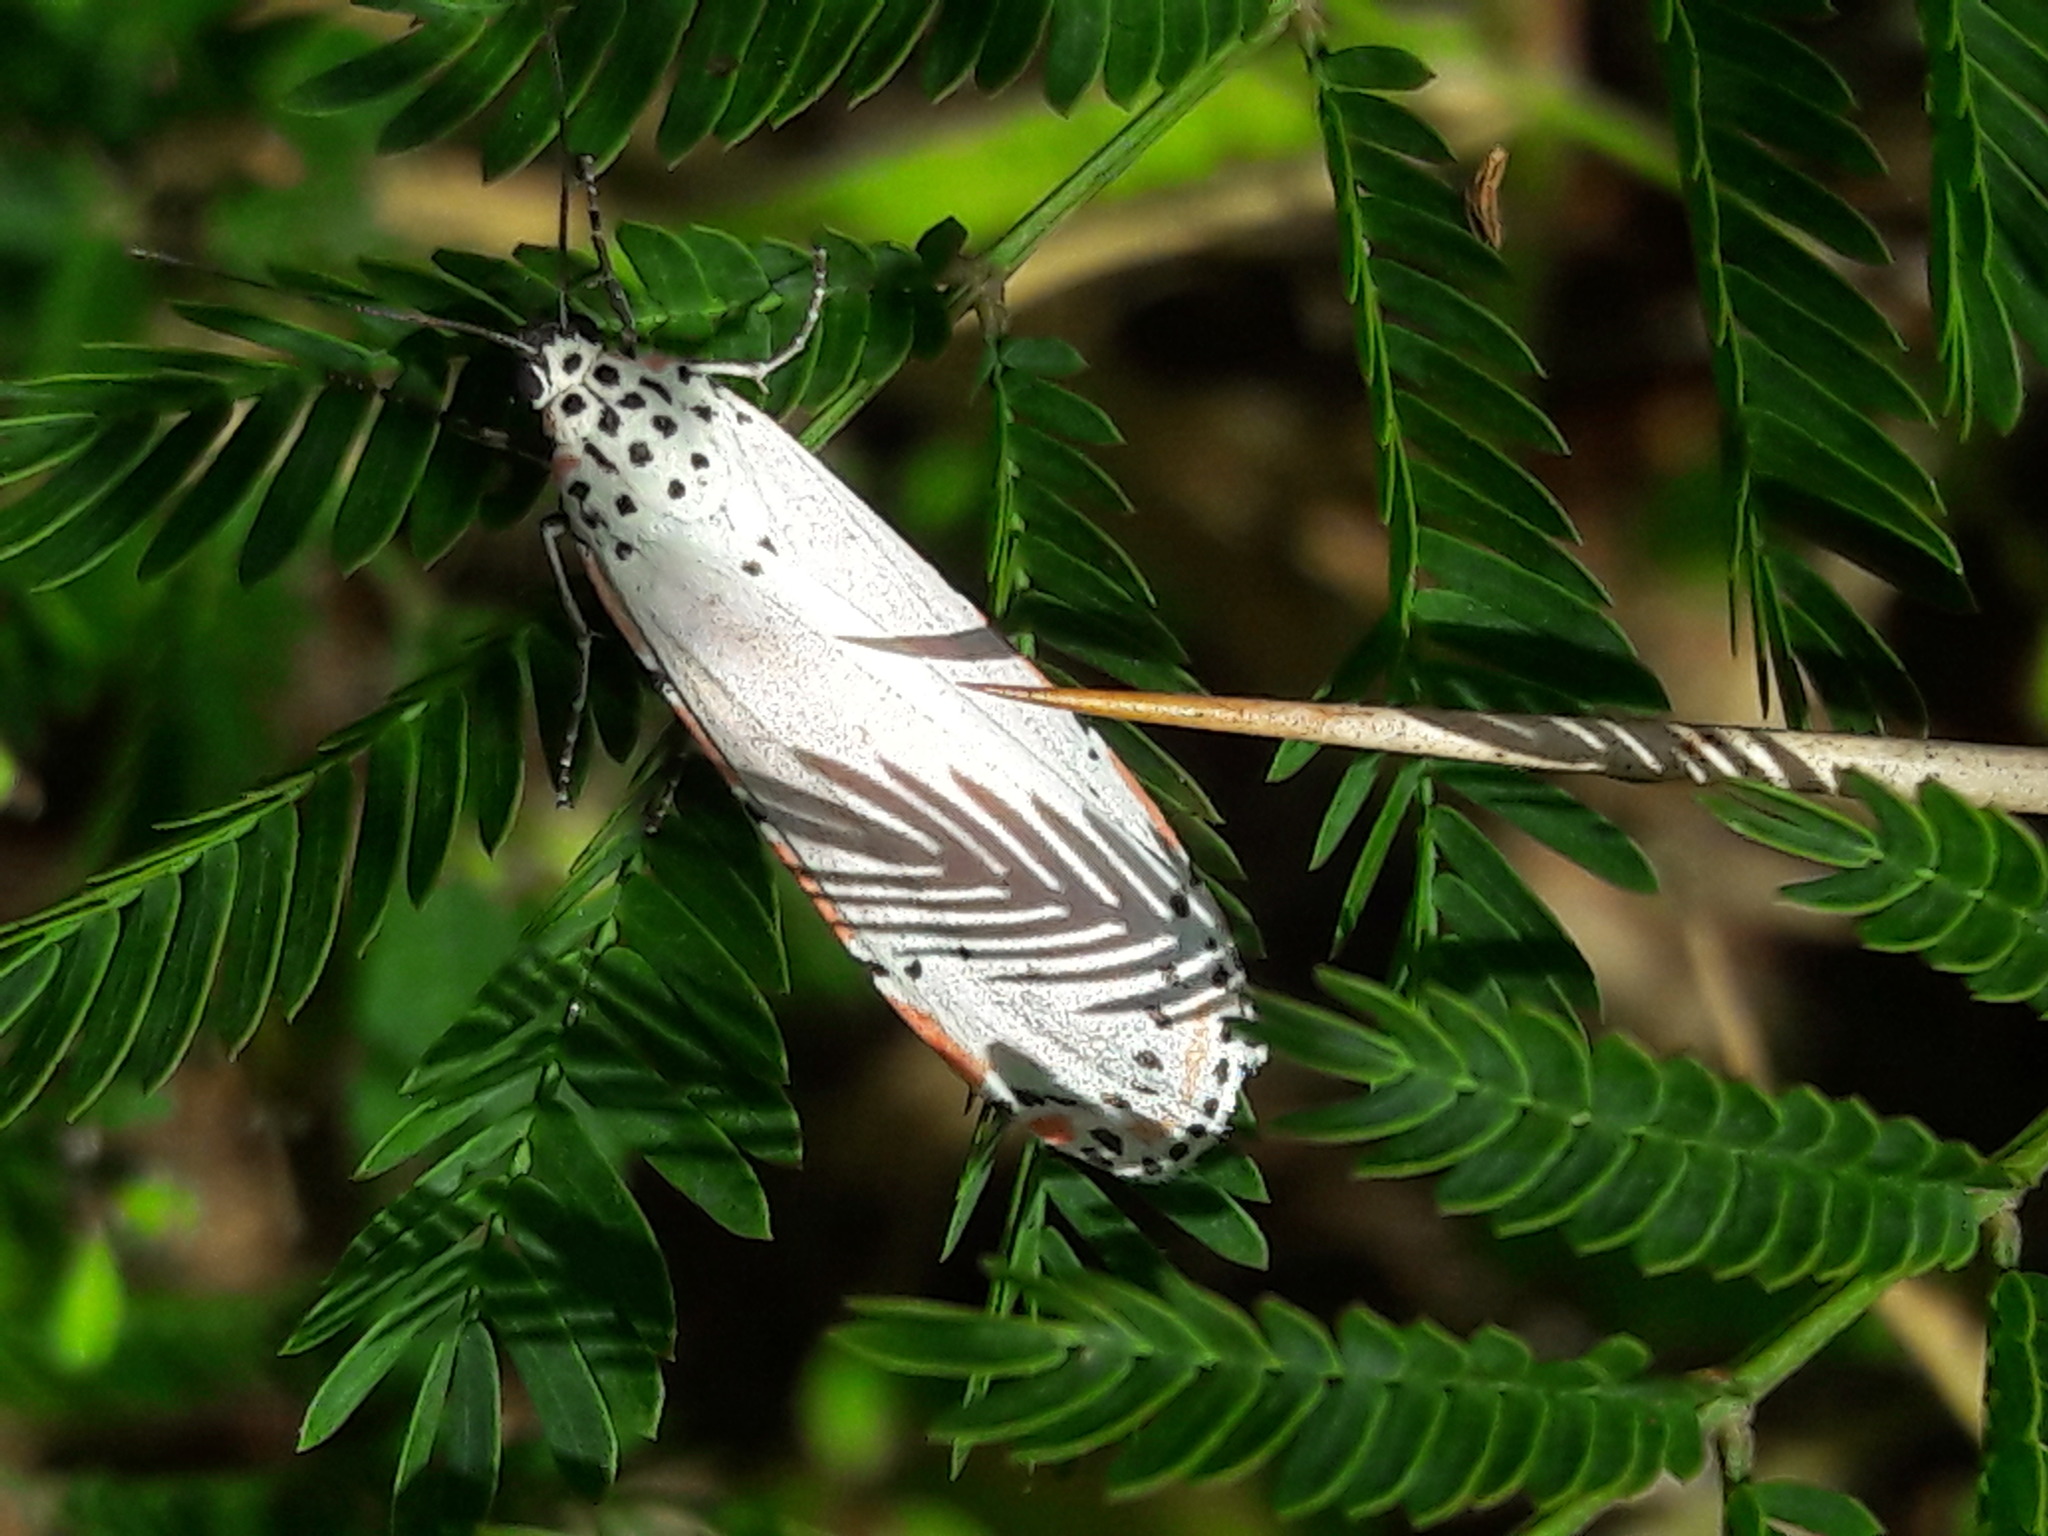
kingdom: Animalia
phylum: Arthropoda
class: Insecta
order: Lepidoptera
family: Erebidae
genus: Utetheisa
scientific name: Utetheisa ornatrix
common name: Beautiful utetheisa
